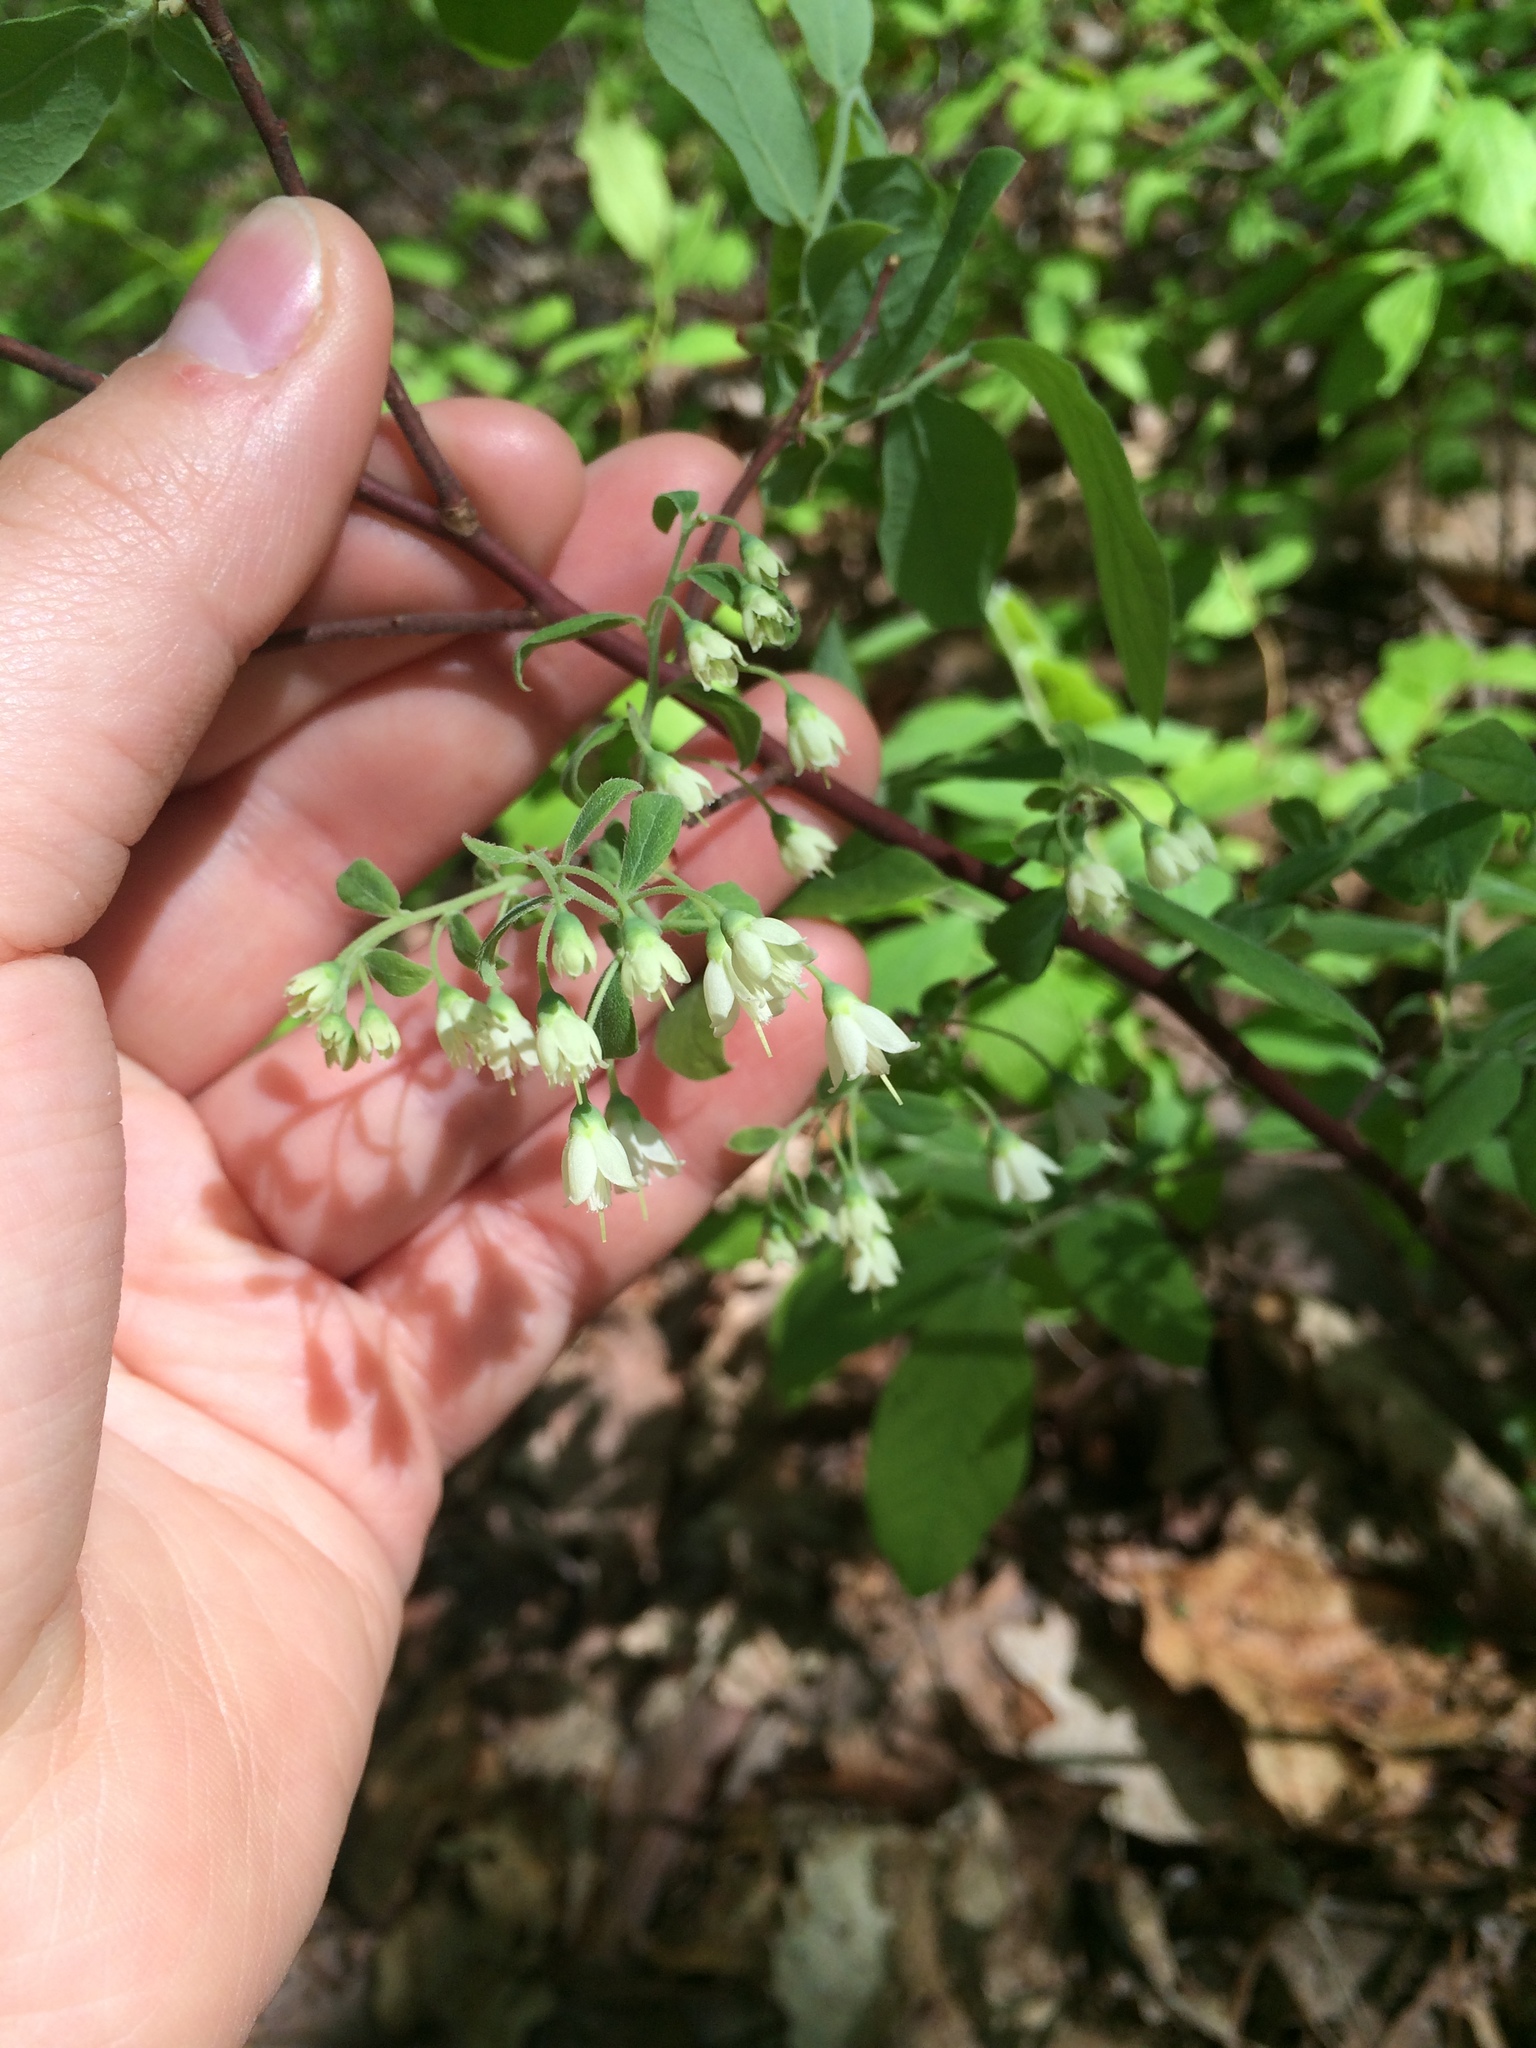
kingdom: Plantae
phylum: Tracheophyta
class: Magnoliopsida
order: Ericales
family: Ericaceae
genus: Vaccinium
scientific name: Vaccinium stamineum
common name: Deerberry
